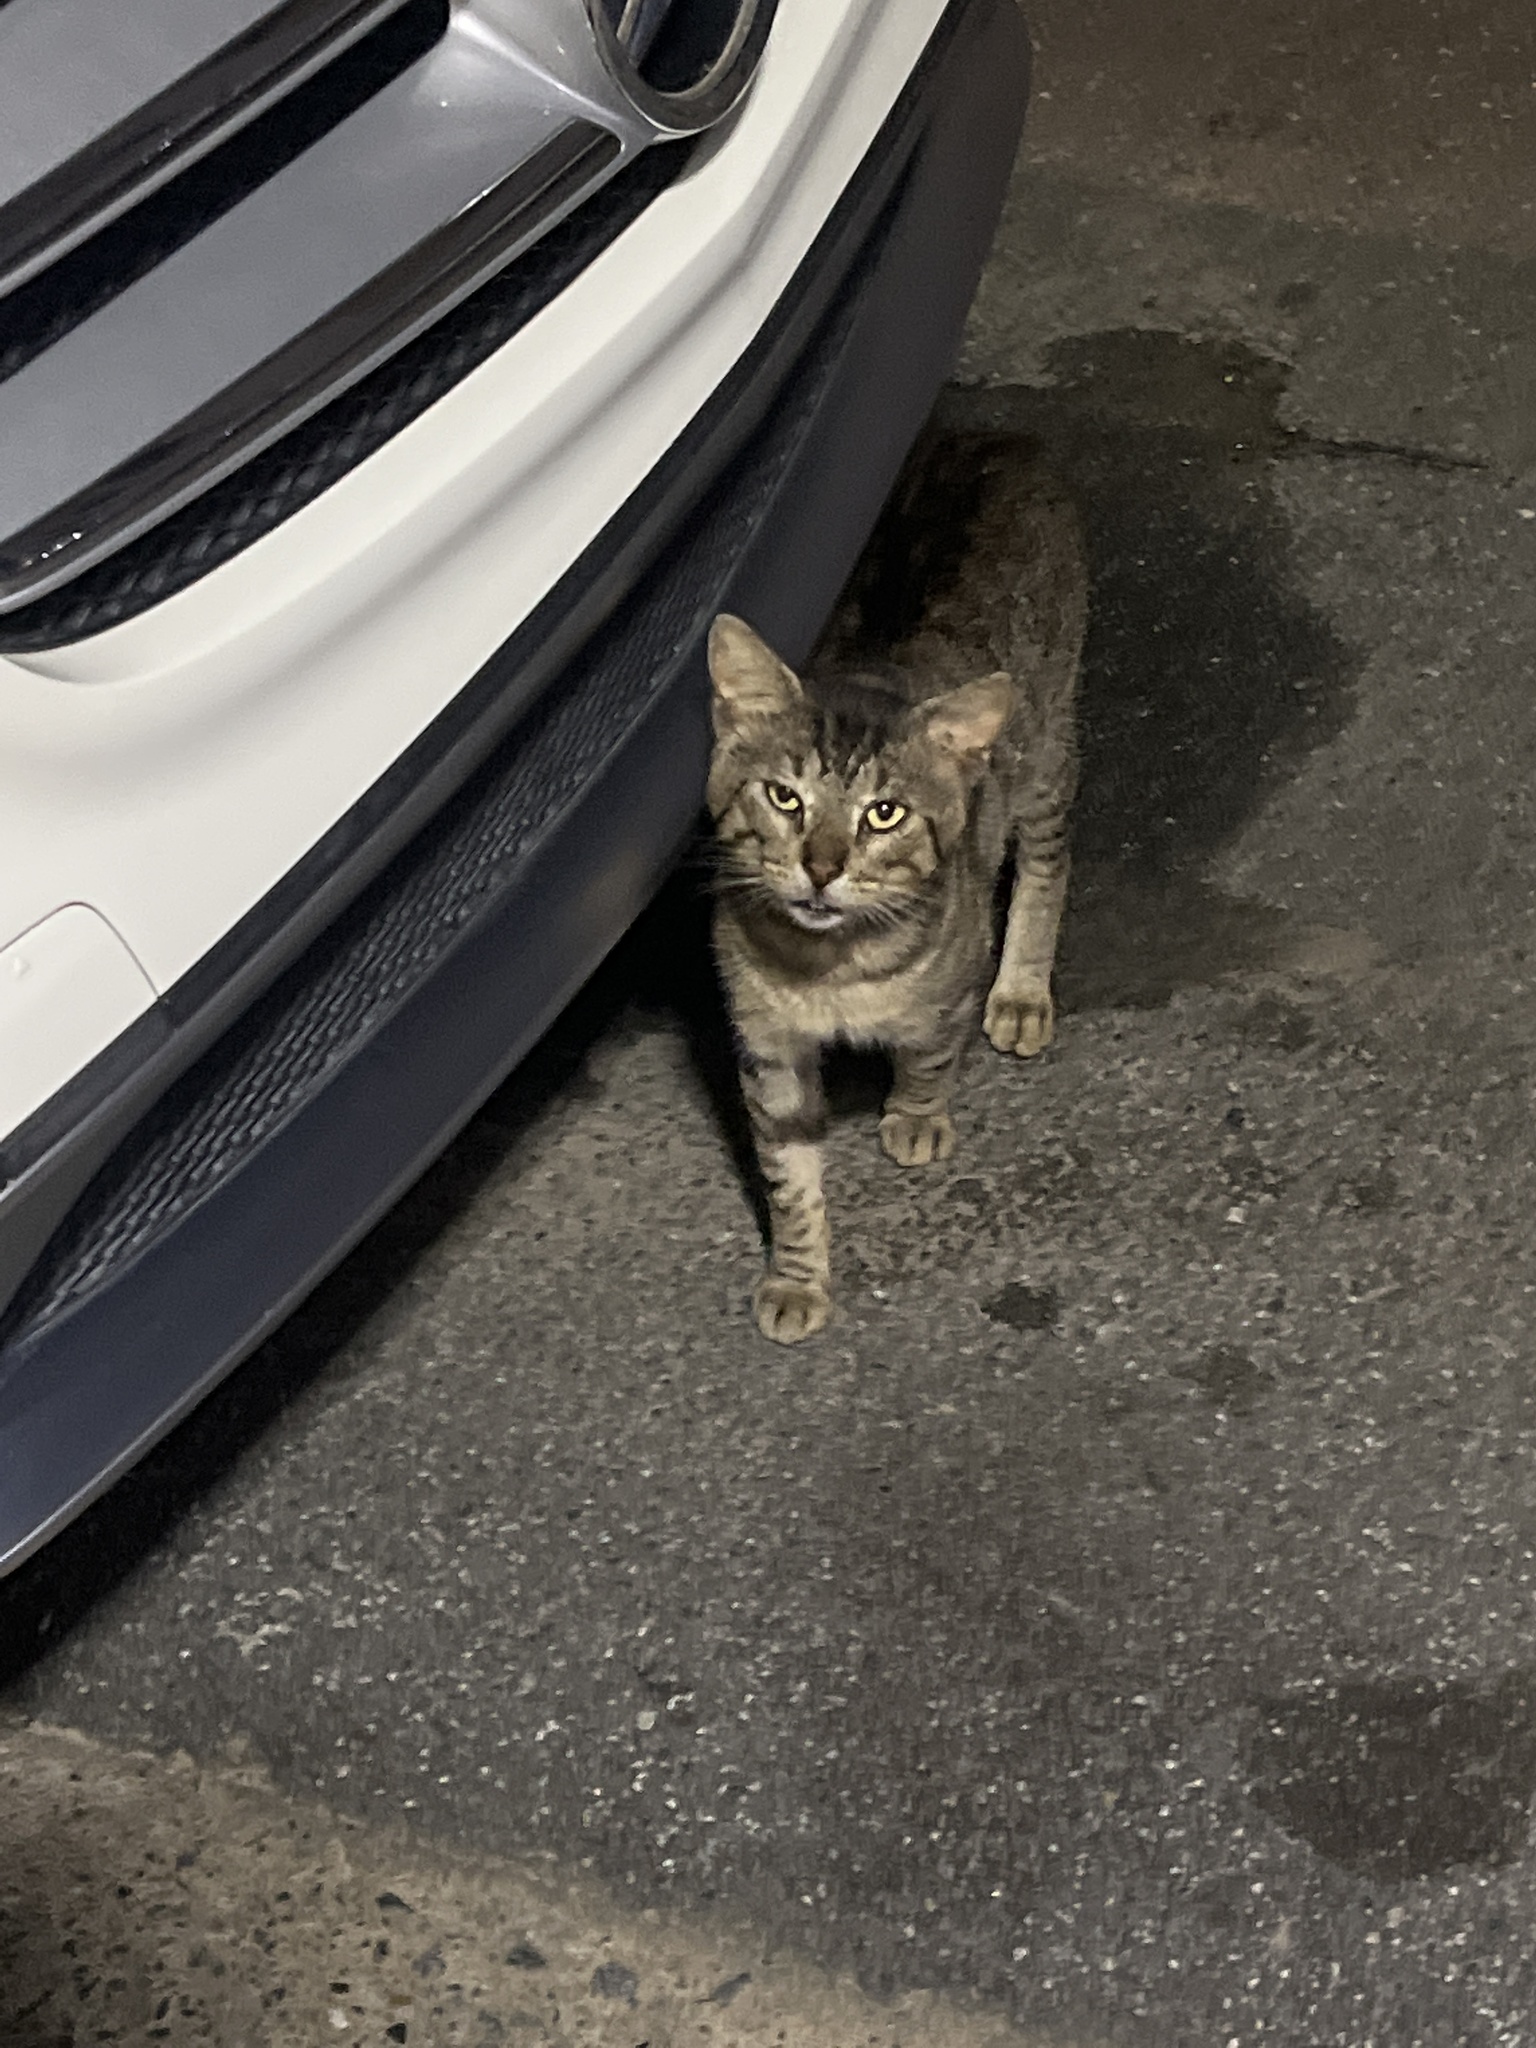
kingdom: Animalia
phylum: Chordata
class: Mammalia
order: Carnivora
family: Felidae
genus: Felis
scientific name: Felis catus
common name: Domestic cat
